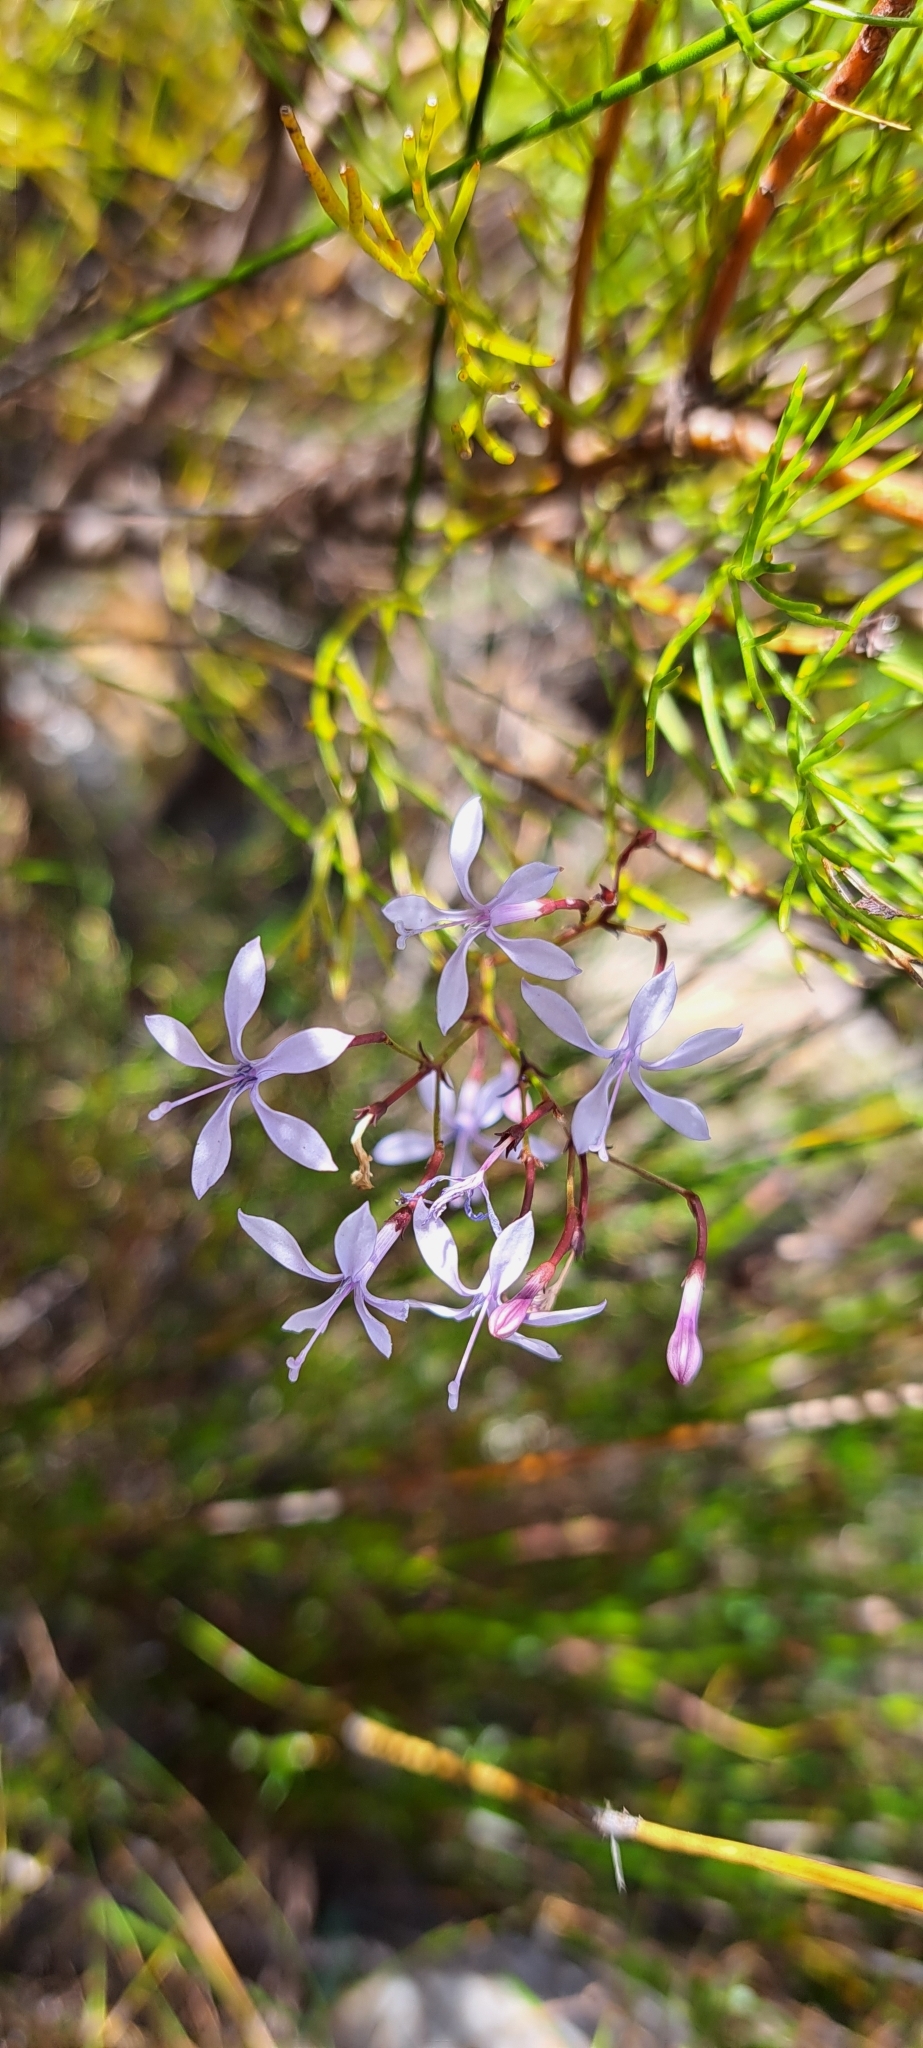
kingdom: Plantae
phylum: Tracheophyta
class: Magnoliopsida
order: Asterales
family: Campanulaceae
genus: Prismatocarpus
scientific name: Prismatocarpus diffusus
